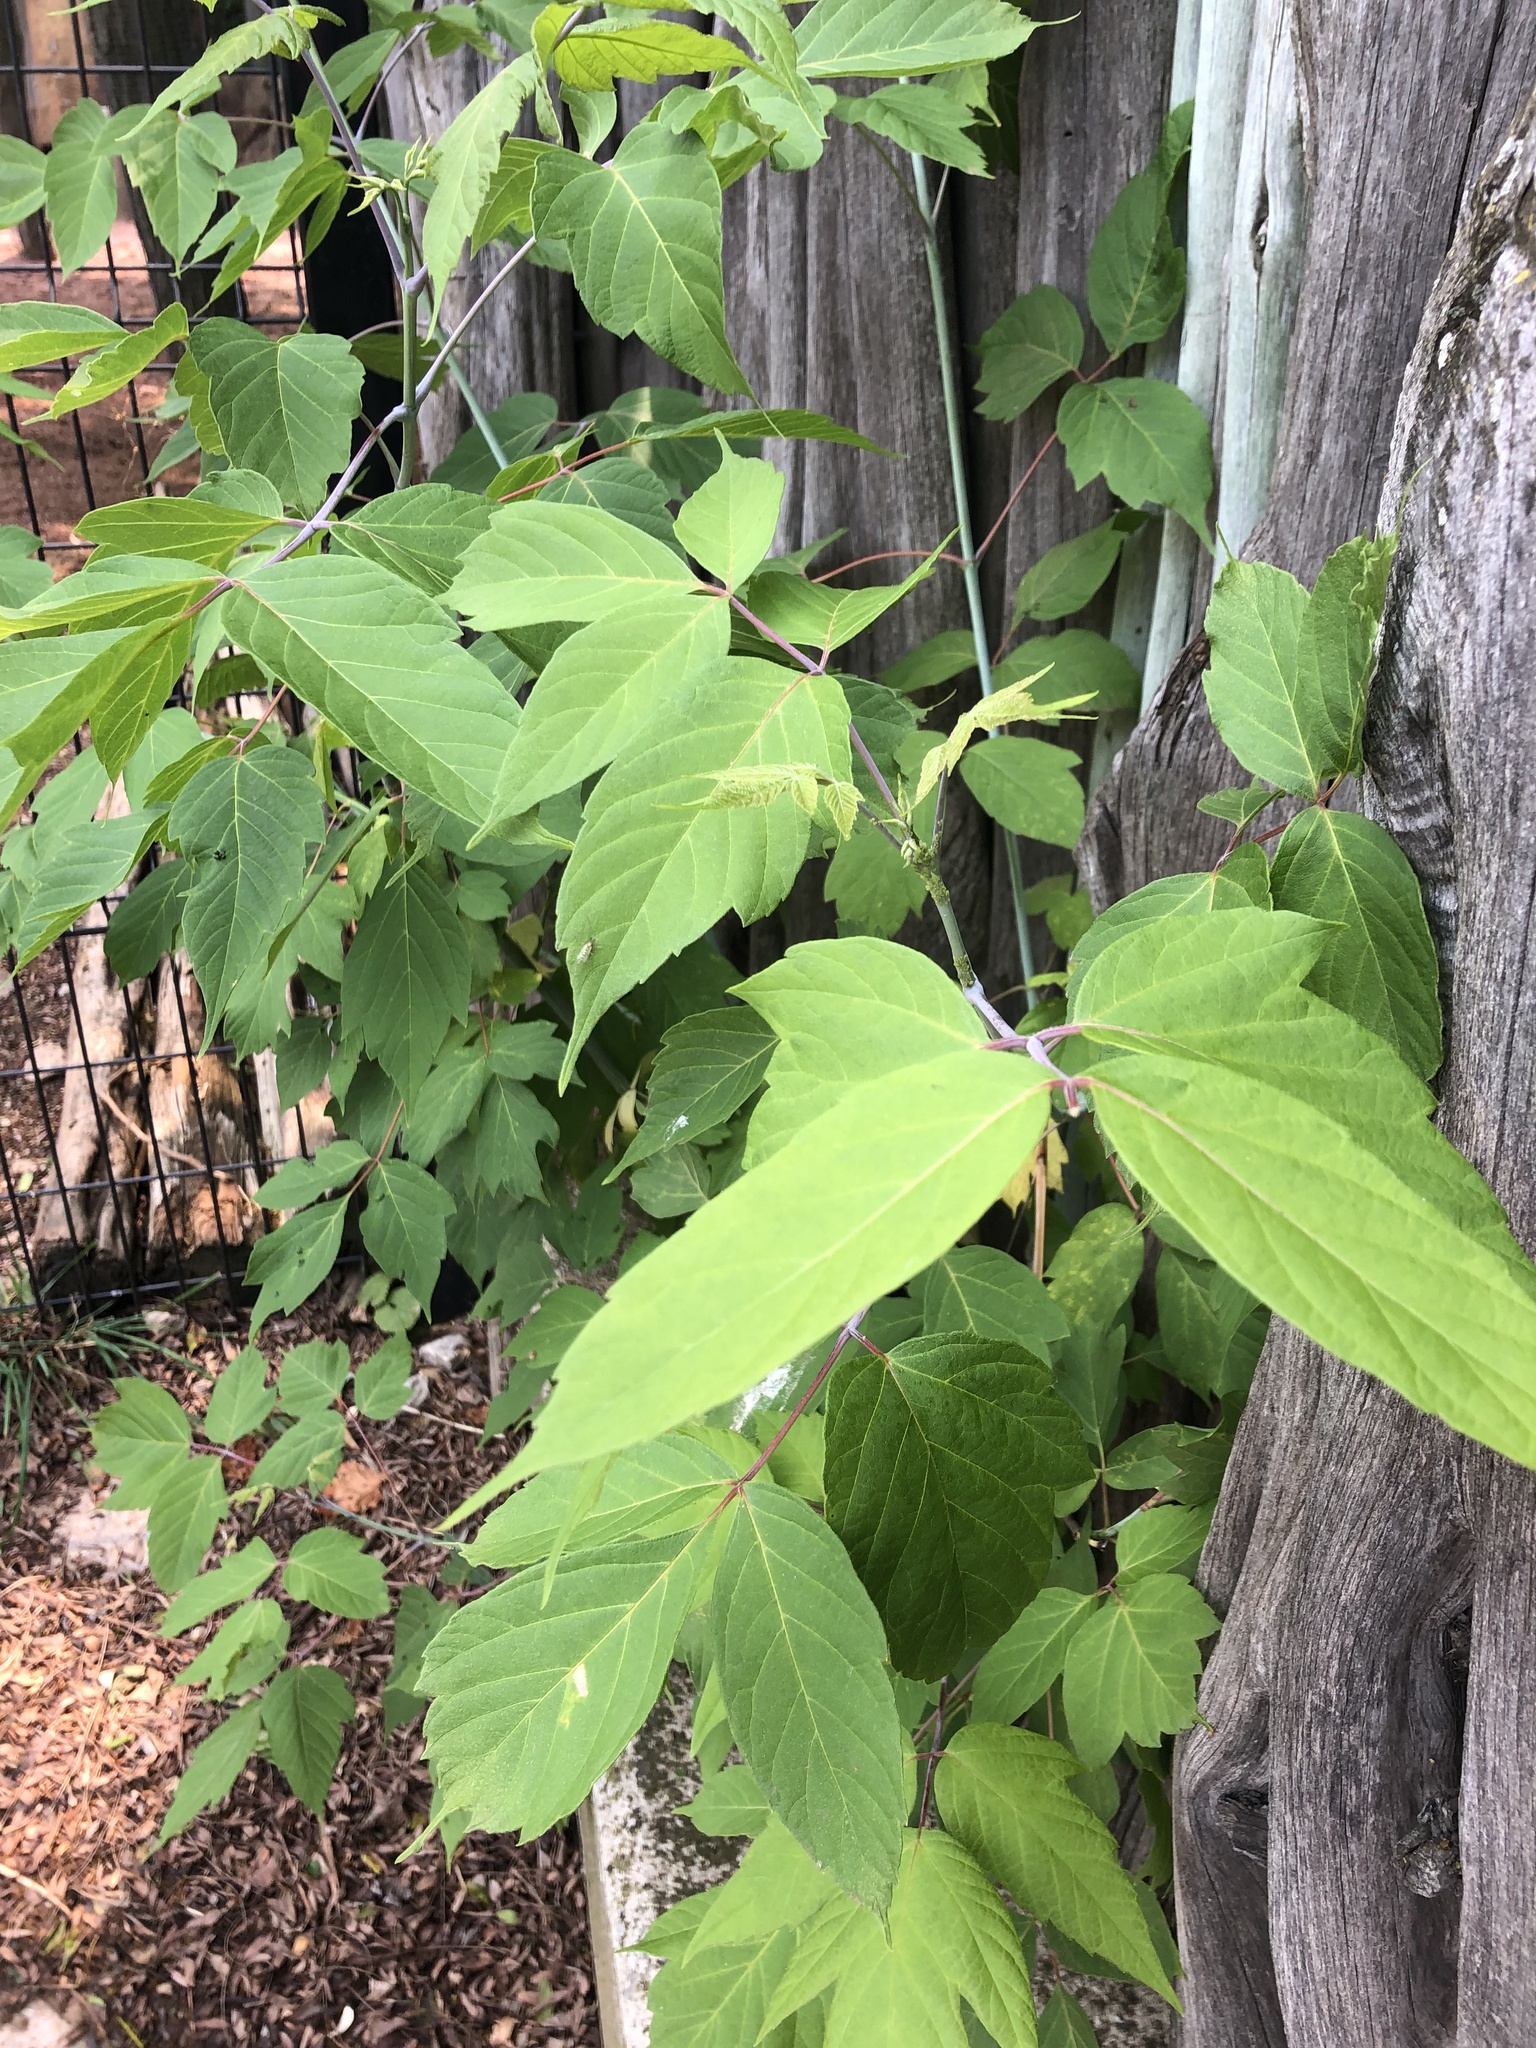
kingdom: Plantae
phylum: Tracheophyta
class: Magnoliopsida
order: Sapindales
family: Sapindaceae
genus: Acer
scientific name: Acer negundo
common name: Ashleaf maple
